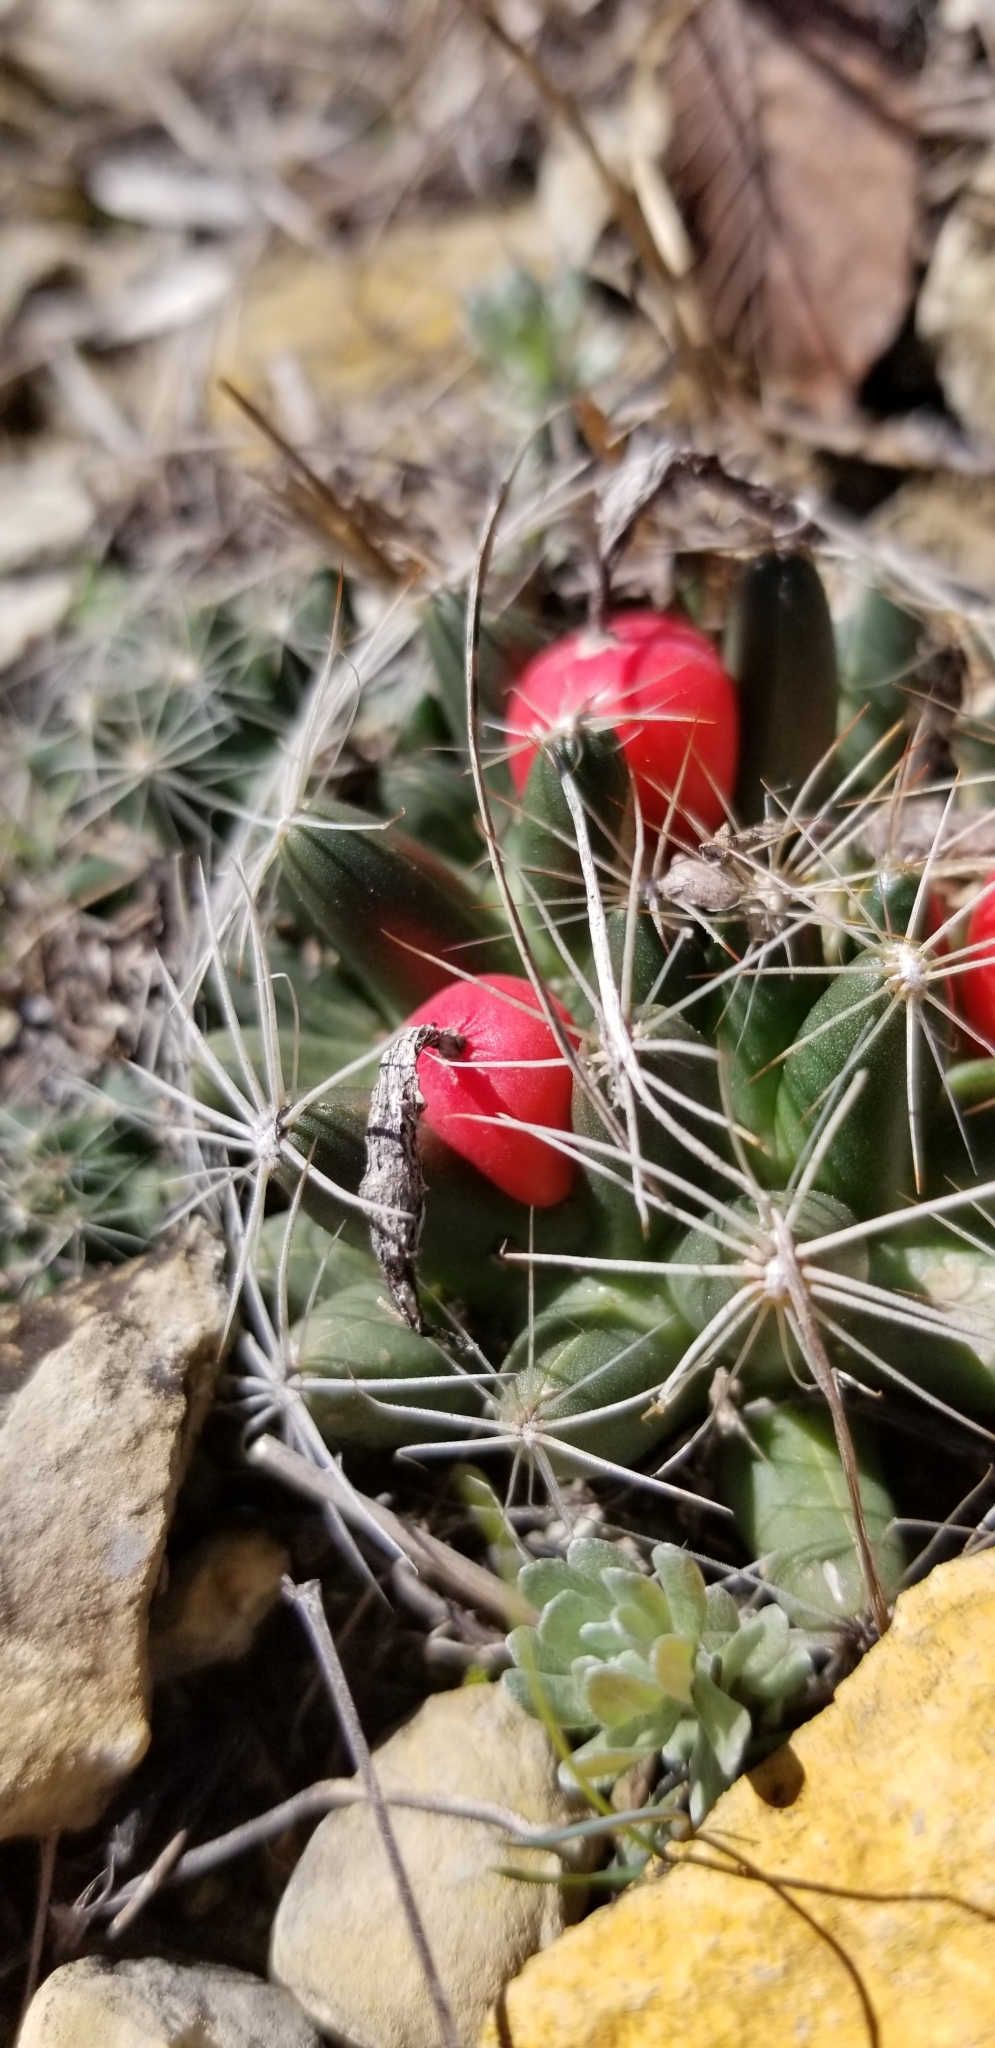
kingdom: Plantae
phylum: Tracheophyta
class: Magnoliopsida
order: Caryophyllales
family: Cactaceae
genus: Pelecyphora
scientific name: Pelecyphora missouriensis
